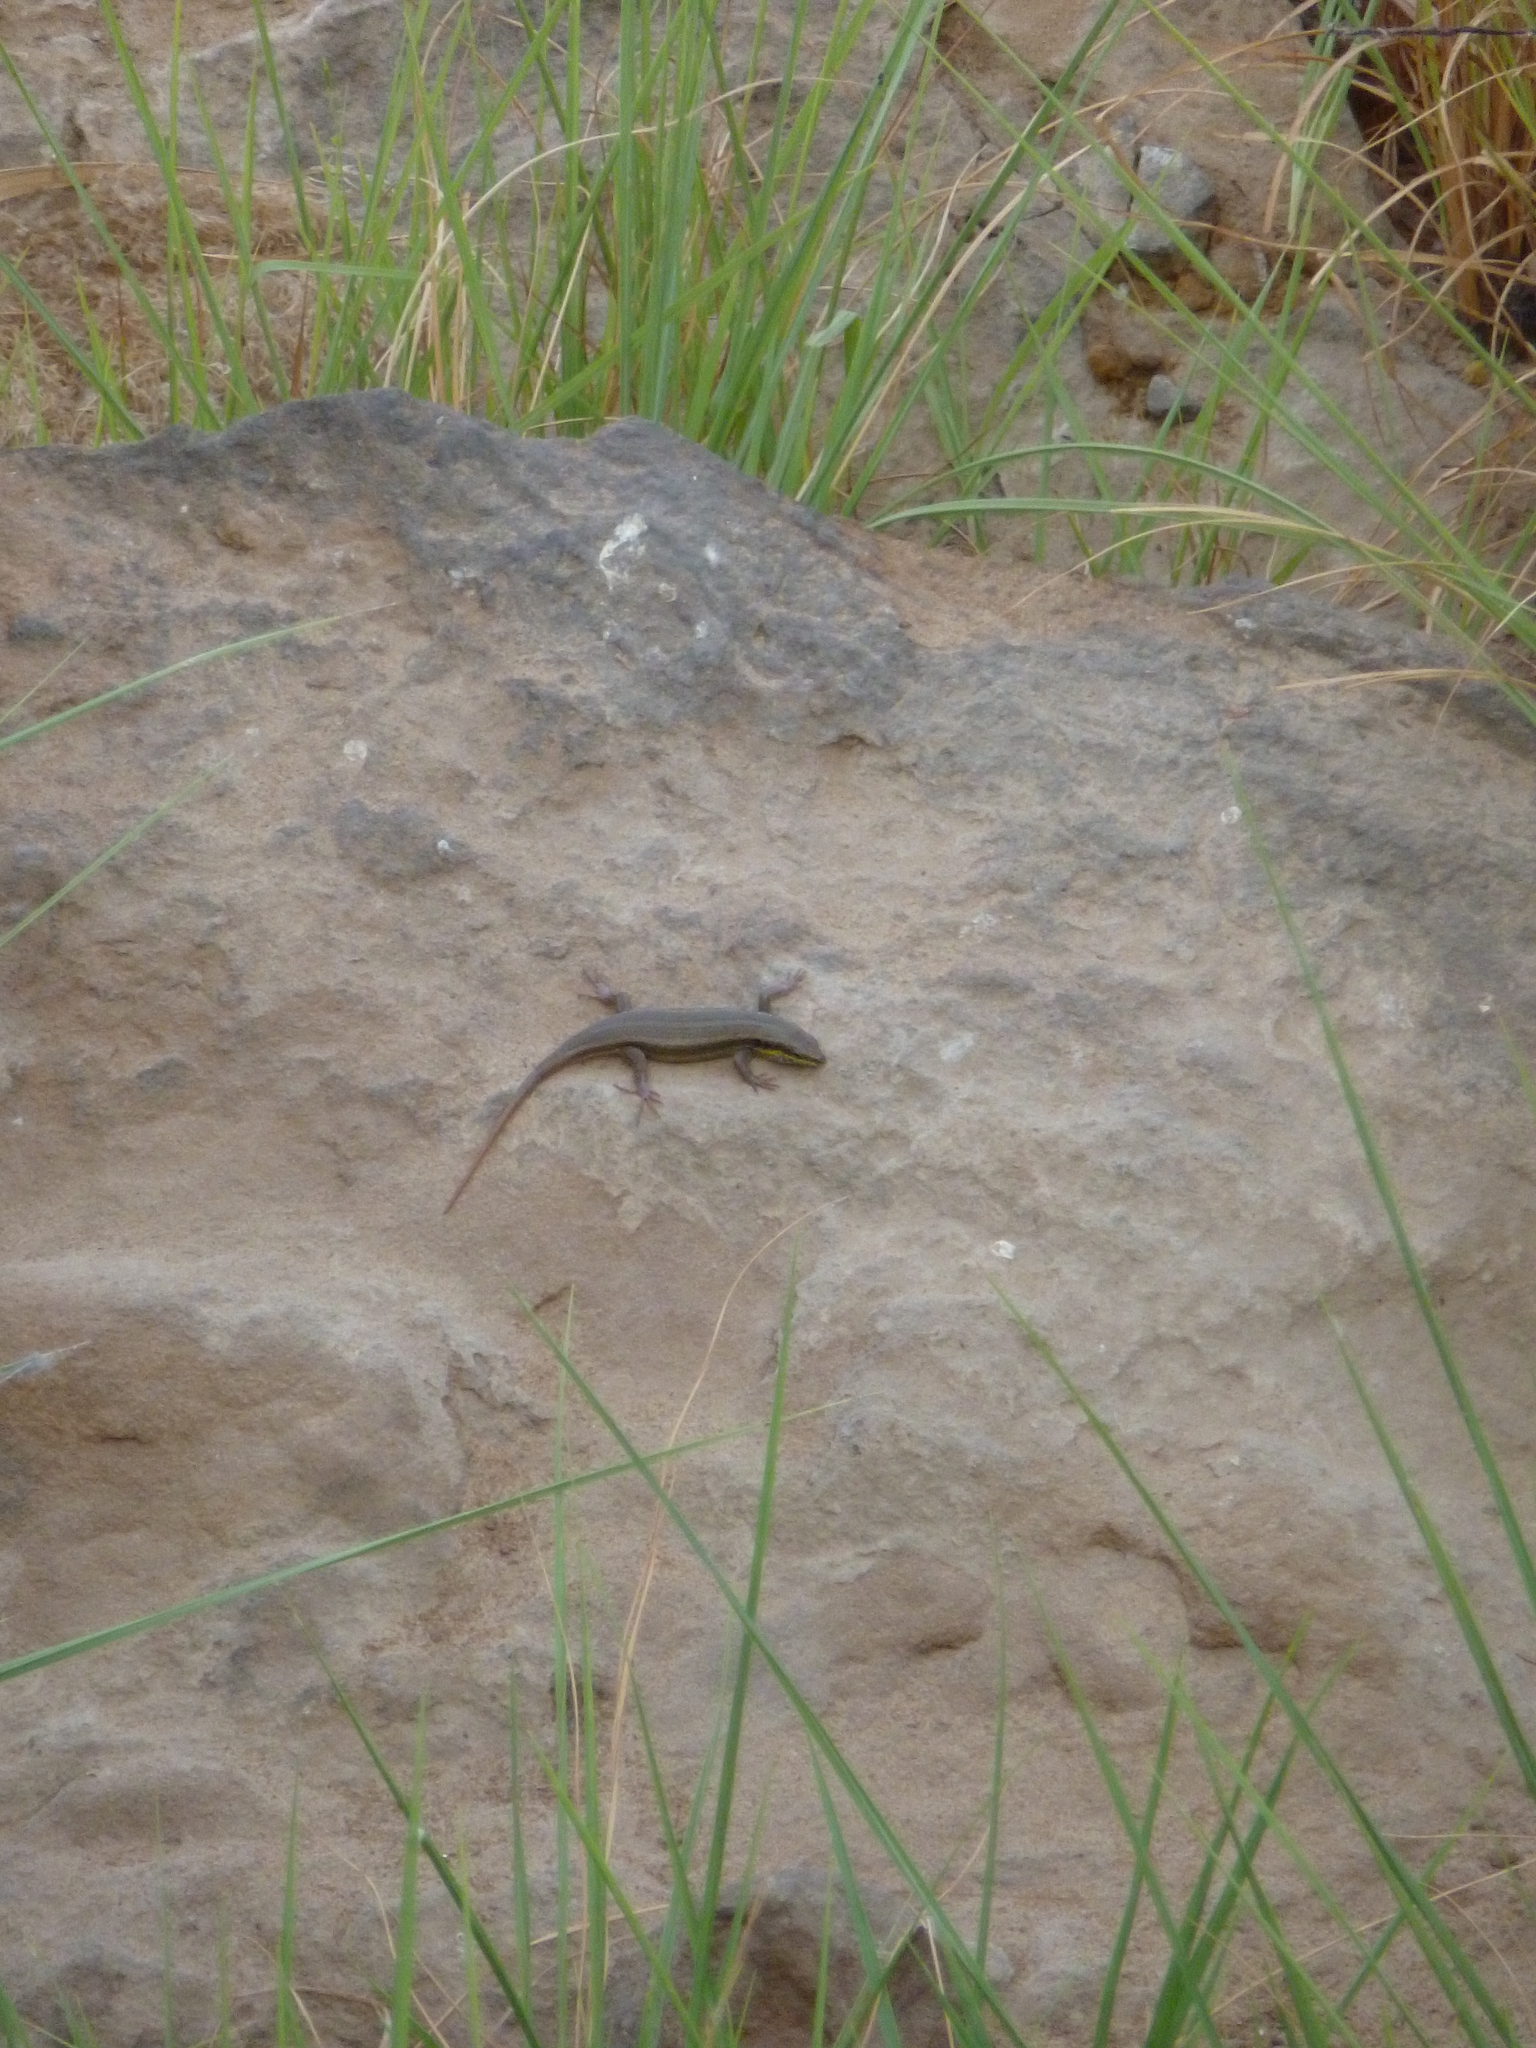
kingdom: Animalia
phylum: Chordata
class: Squamata
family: Scincidae
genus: Trachylepis
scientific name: Trachylepis quinquetaeniata
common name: African five-lined skink
